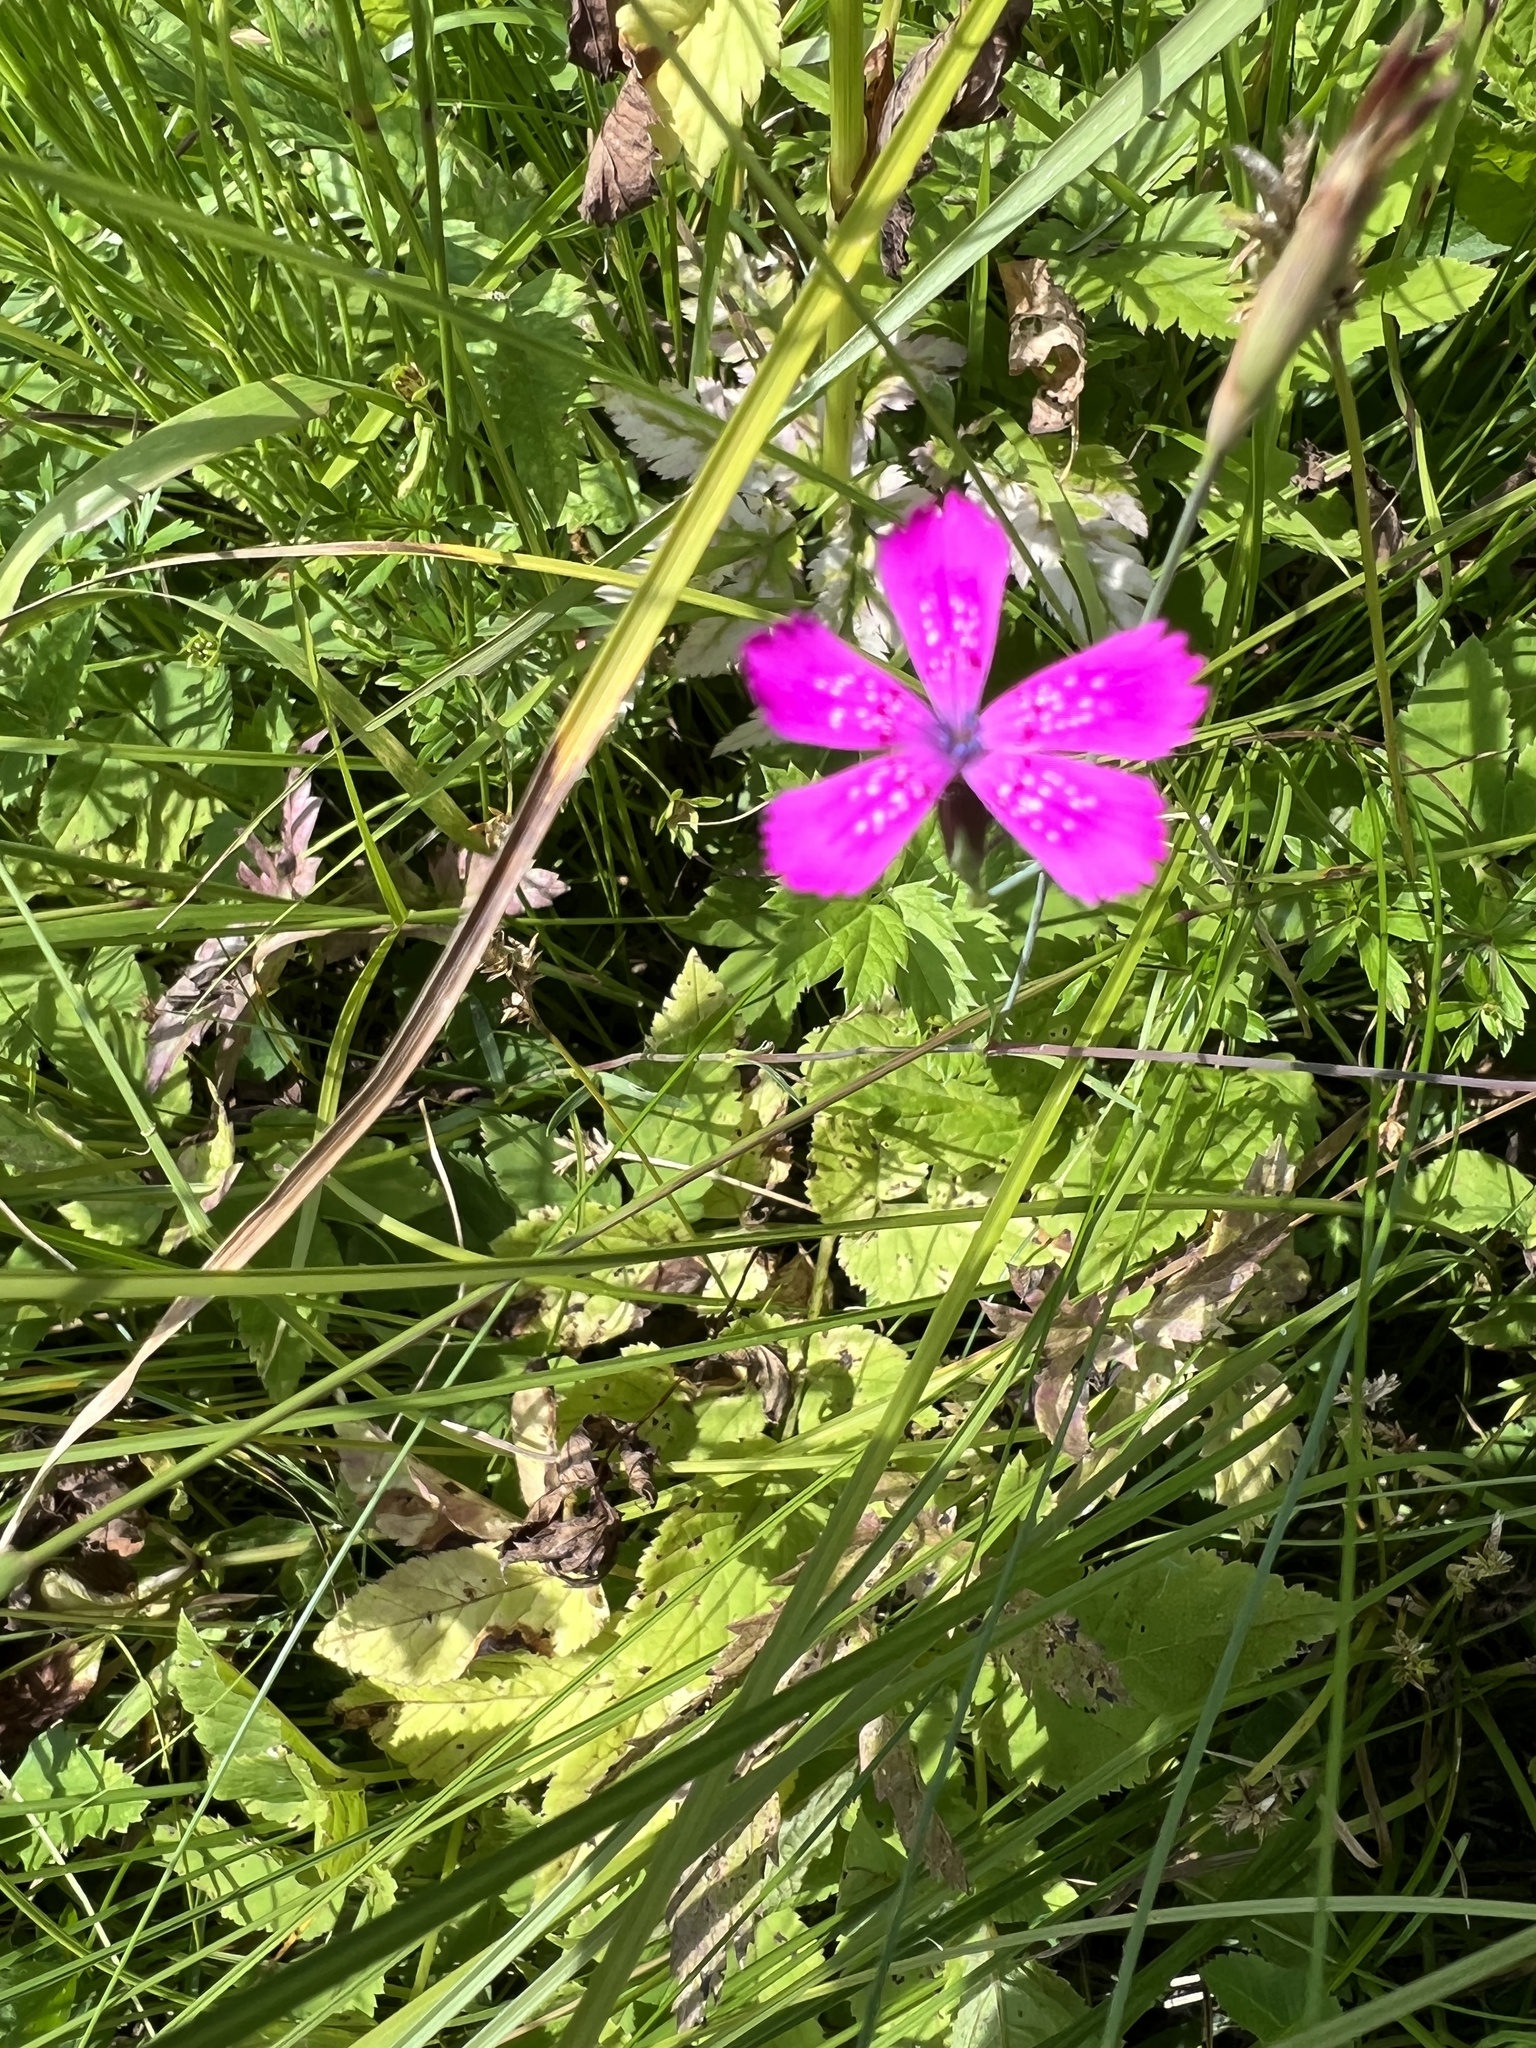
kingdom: Plantae
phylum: Tracheophyta
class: Magnoliopsida
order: Caryophyllales
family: Caryophyllaceae
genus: Dianthus
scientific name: Dianthus deltoides
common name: Maiden pink
